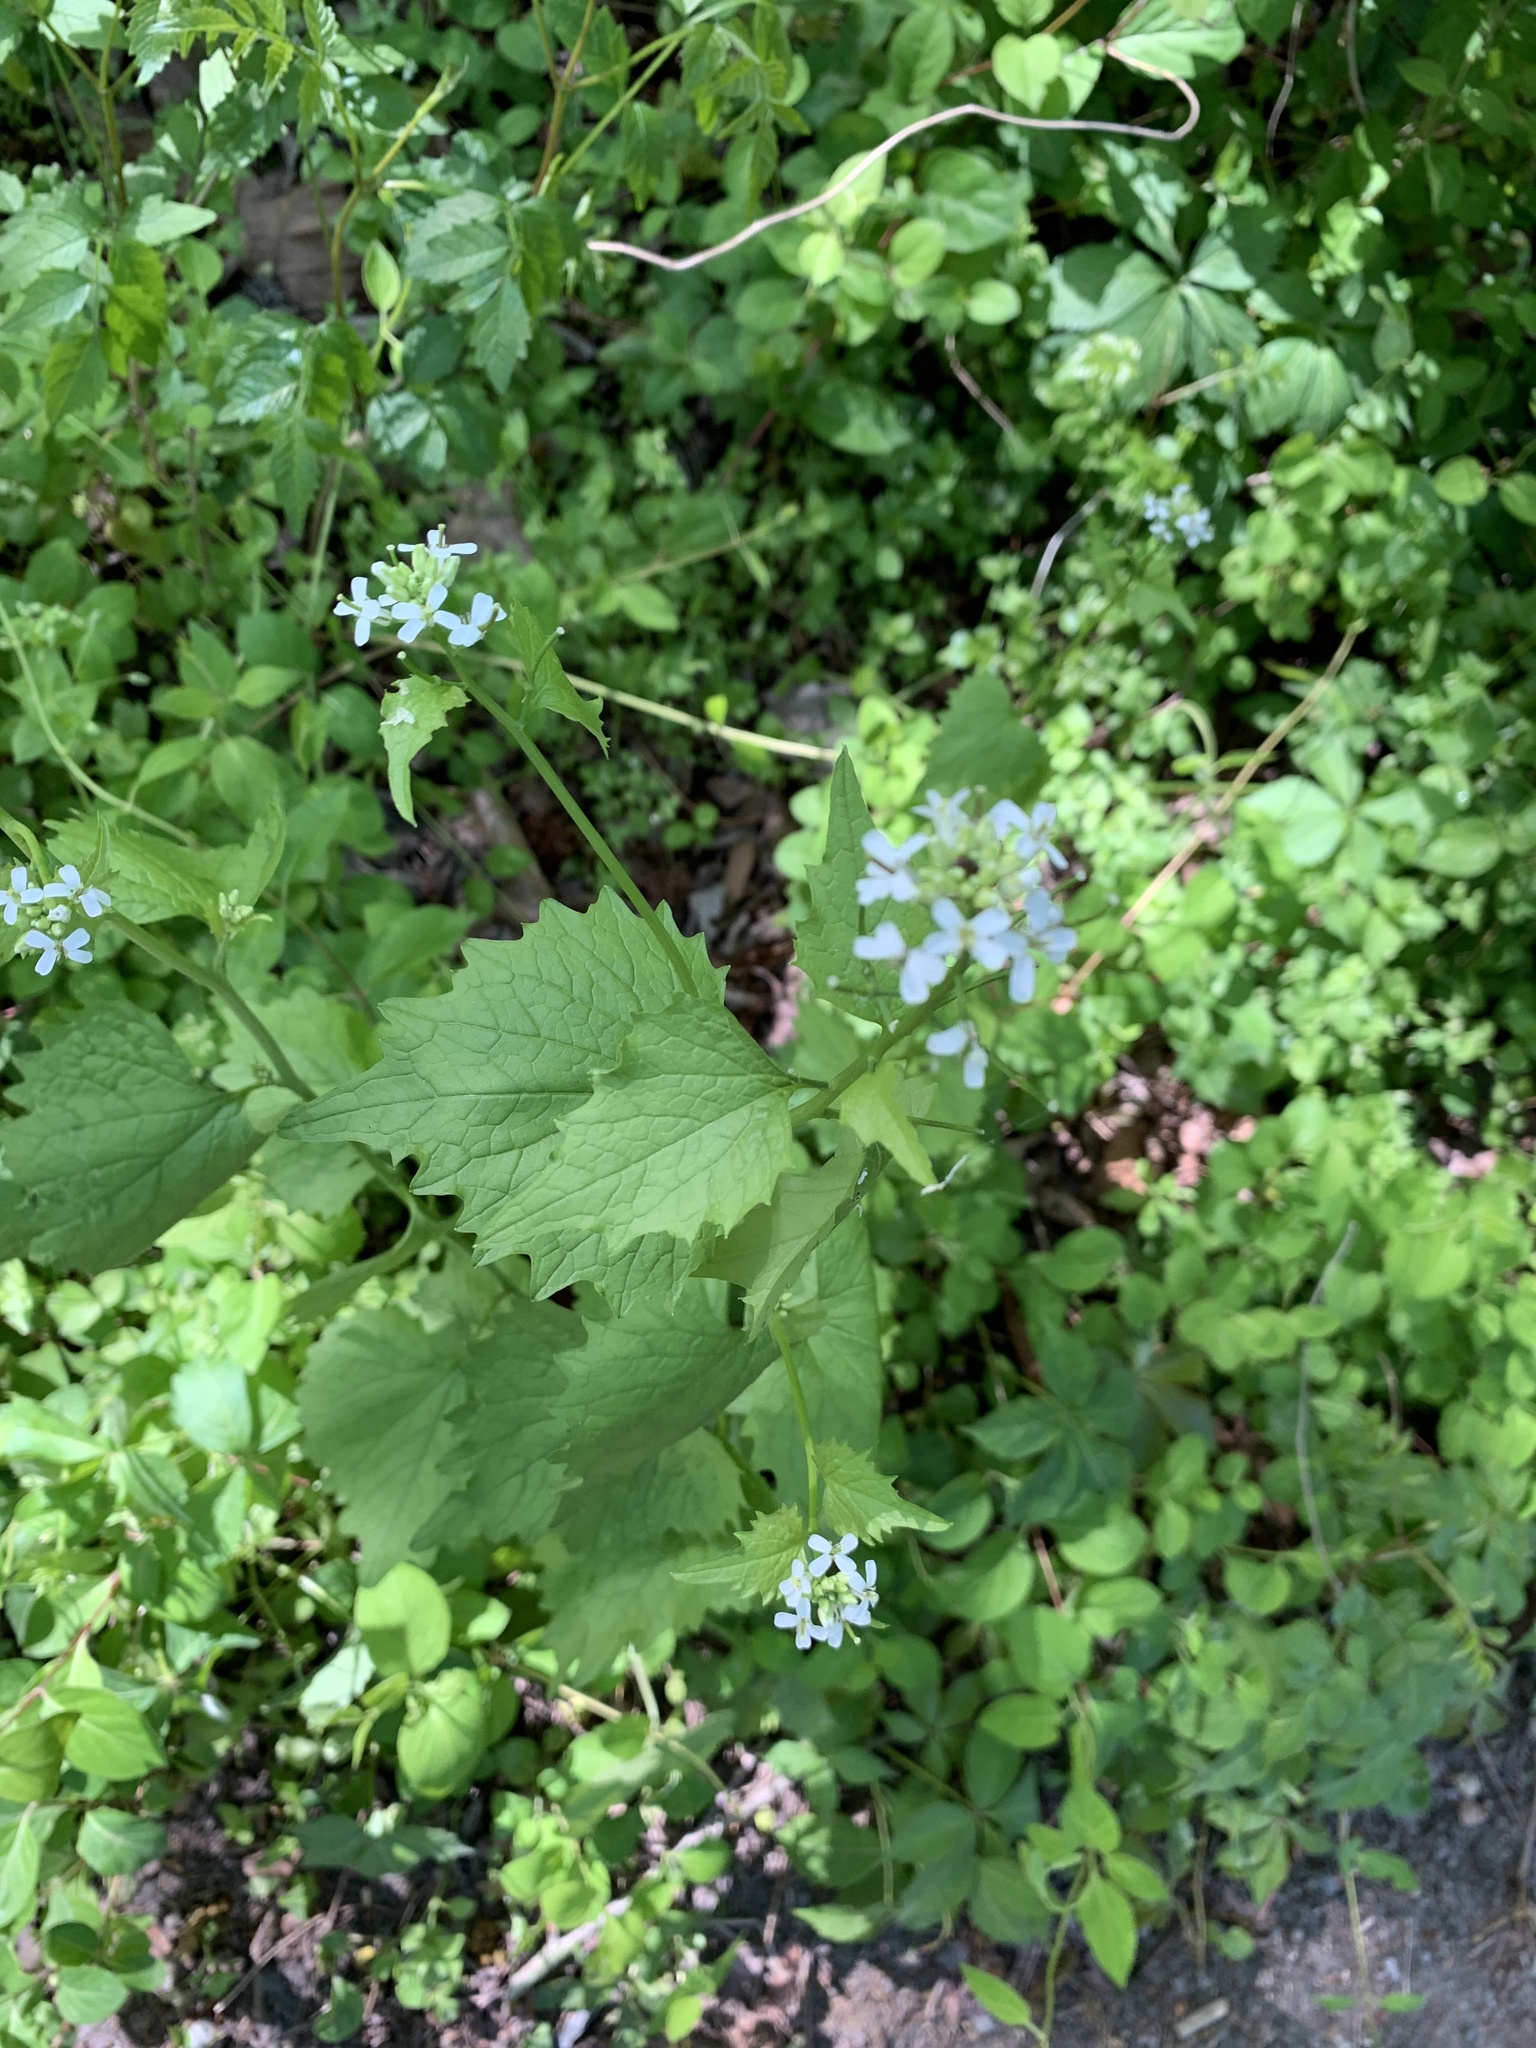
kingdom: Plantae
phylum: Tracheophyta
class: Magnoliopsida
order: Brassicales
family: Brassicaceae
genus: Alliaria
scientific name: Alliaria petiolata
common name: Garlic mustard
